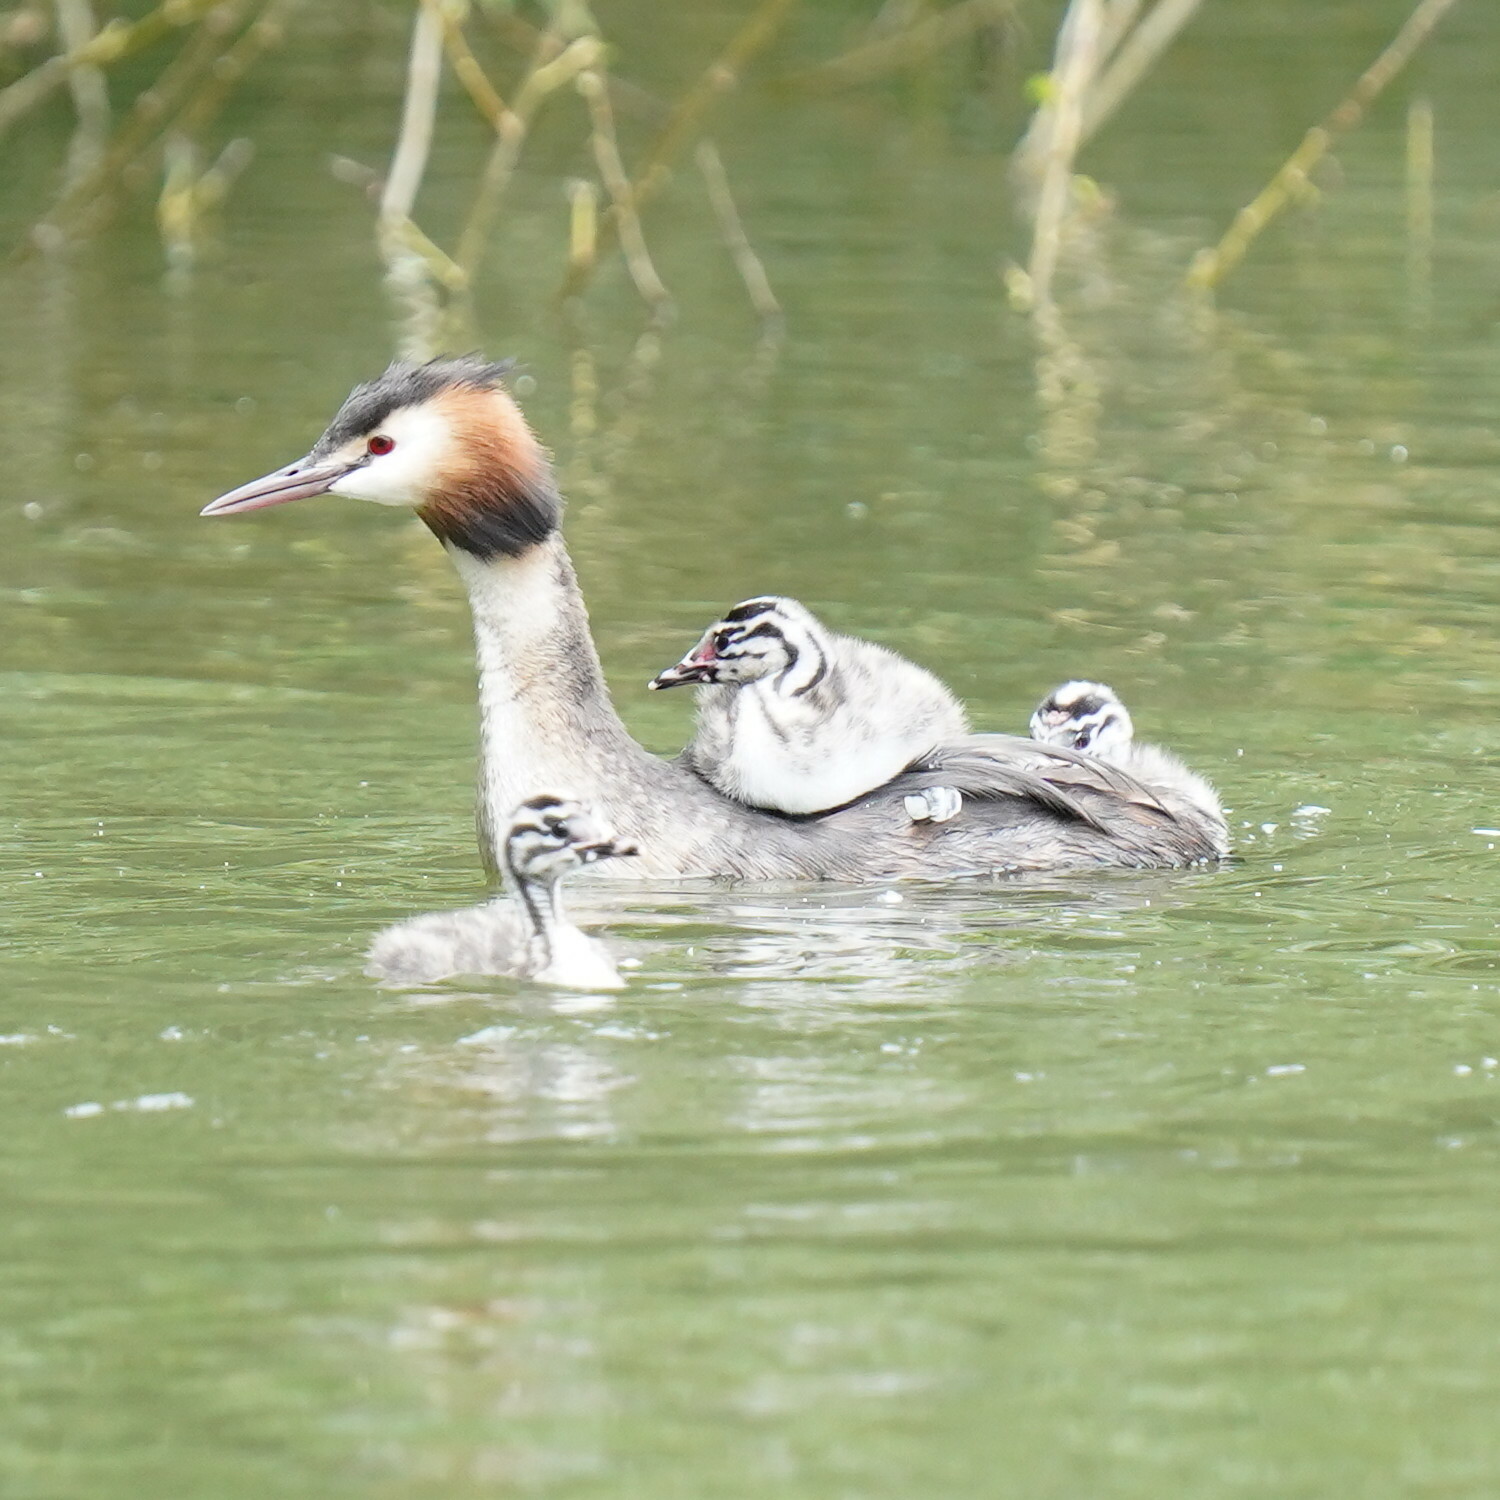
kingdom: Animalia
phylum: Chordata
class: Aves
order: Podicipediformes
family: Podicipedidae
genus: Podiceps
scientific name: Podiceps cristatus
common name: Great crested grebe
